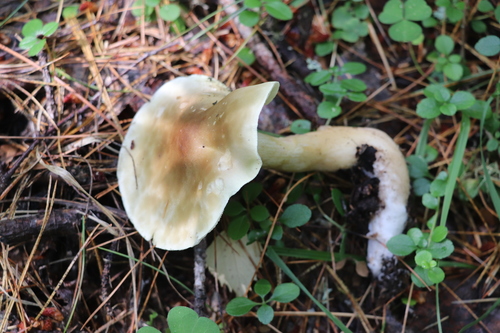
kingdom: Fungi
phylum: Basidiomycota
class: Agaricomycetes
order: Agaricales
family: Tricholomataceae
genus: Tricholoma
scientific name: Tricholoma rapipes
